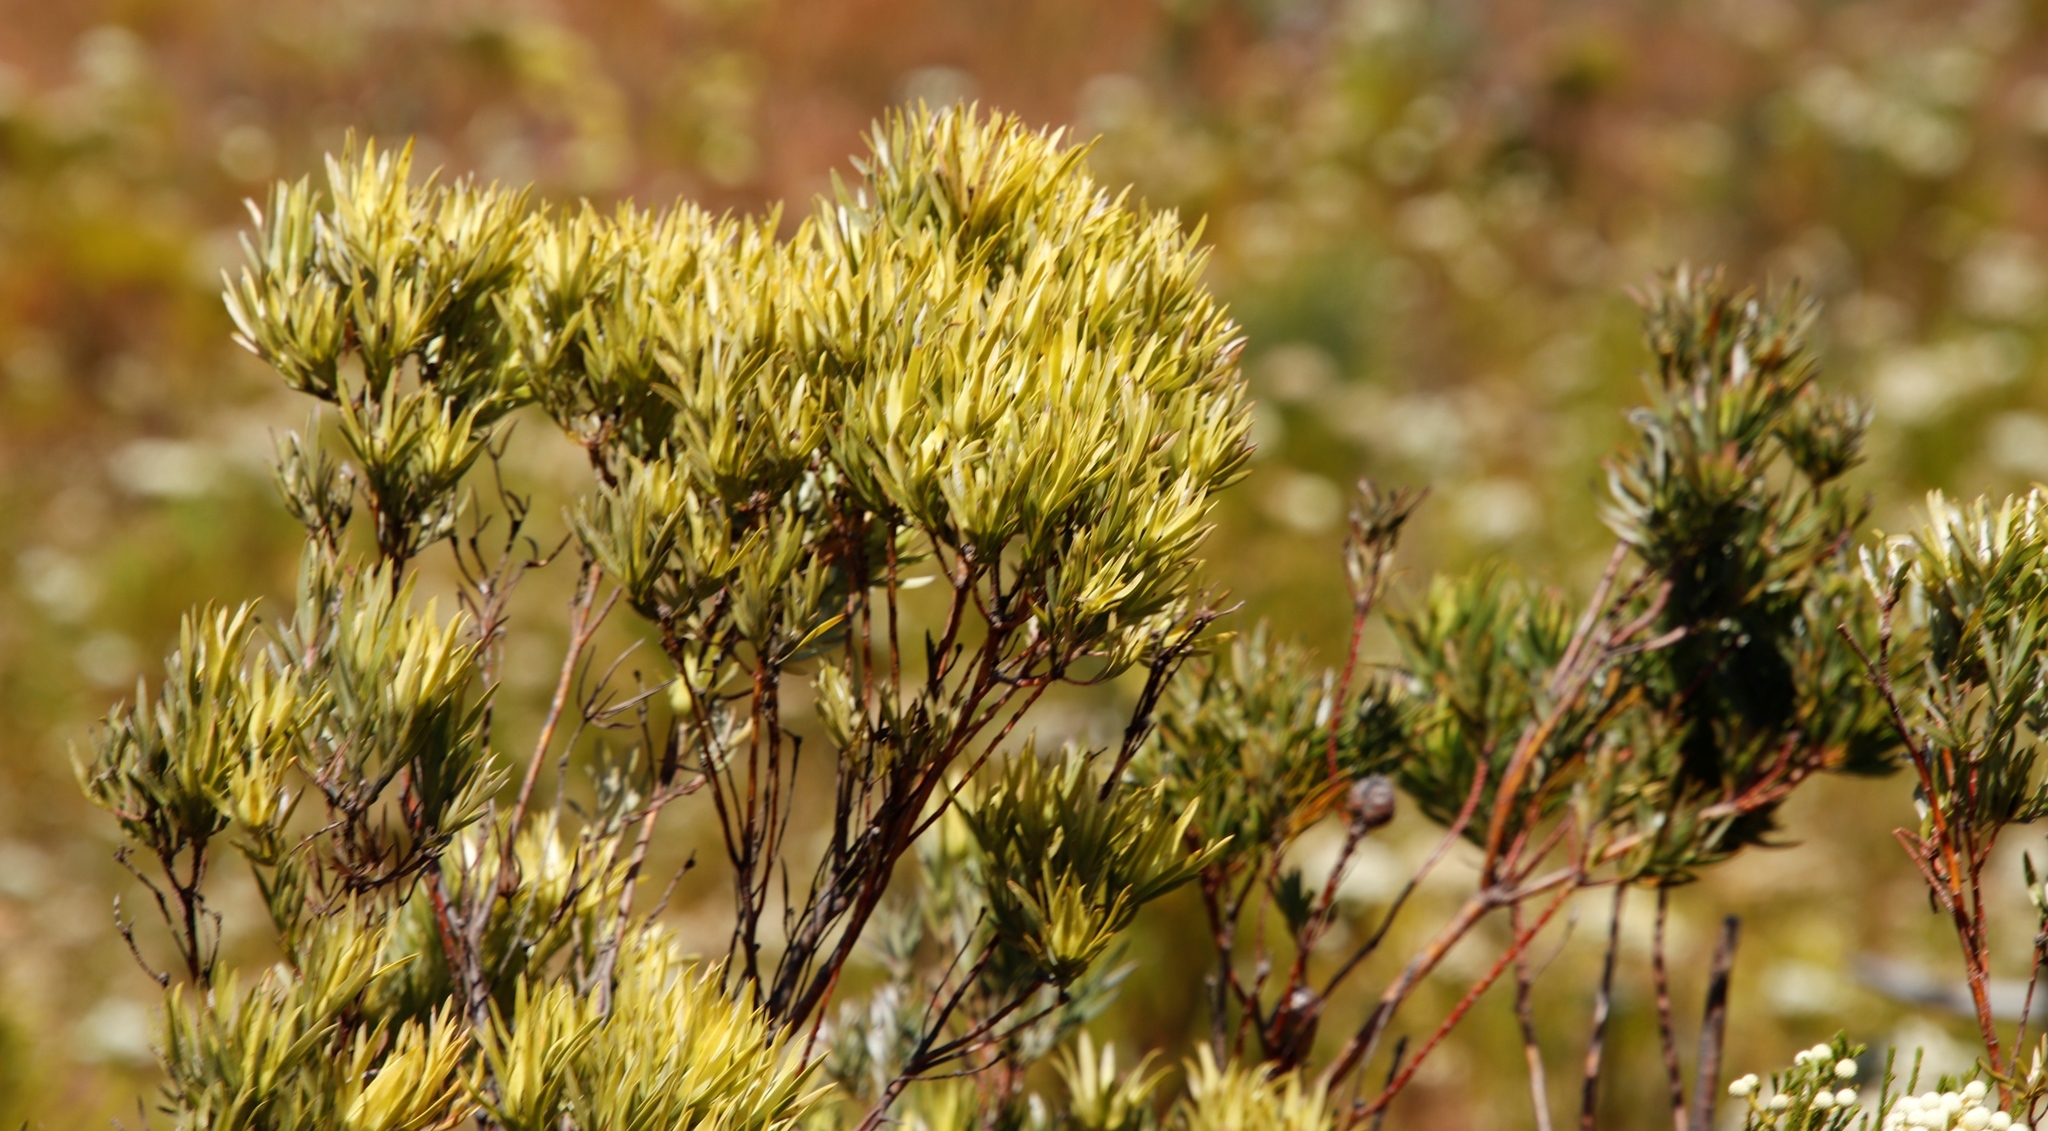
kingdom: Plantae
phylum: Tracheophyta
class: Magnoliopsida
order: Proteales
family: Proteaceae
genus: Leucadendron
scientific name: Leucadendron xanthoconus
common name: Sickle-leaf conebush
